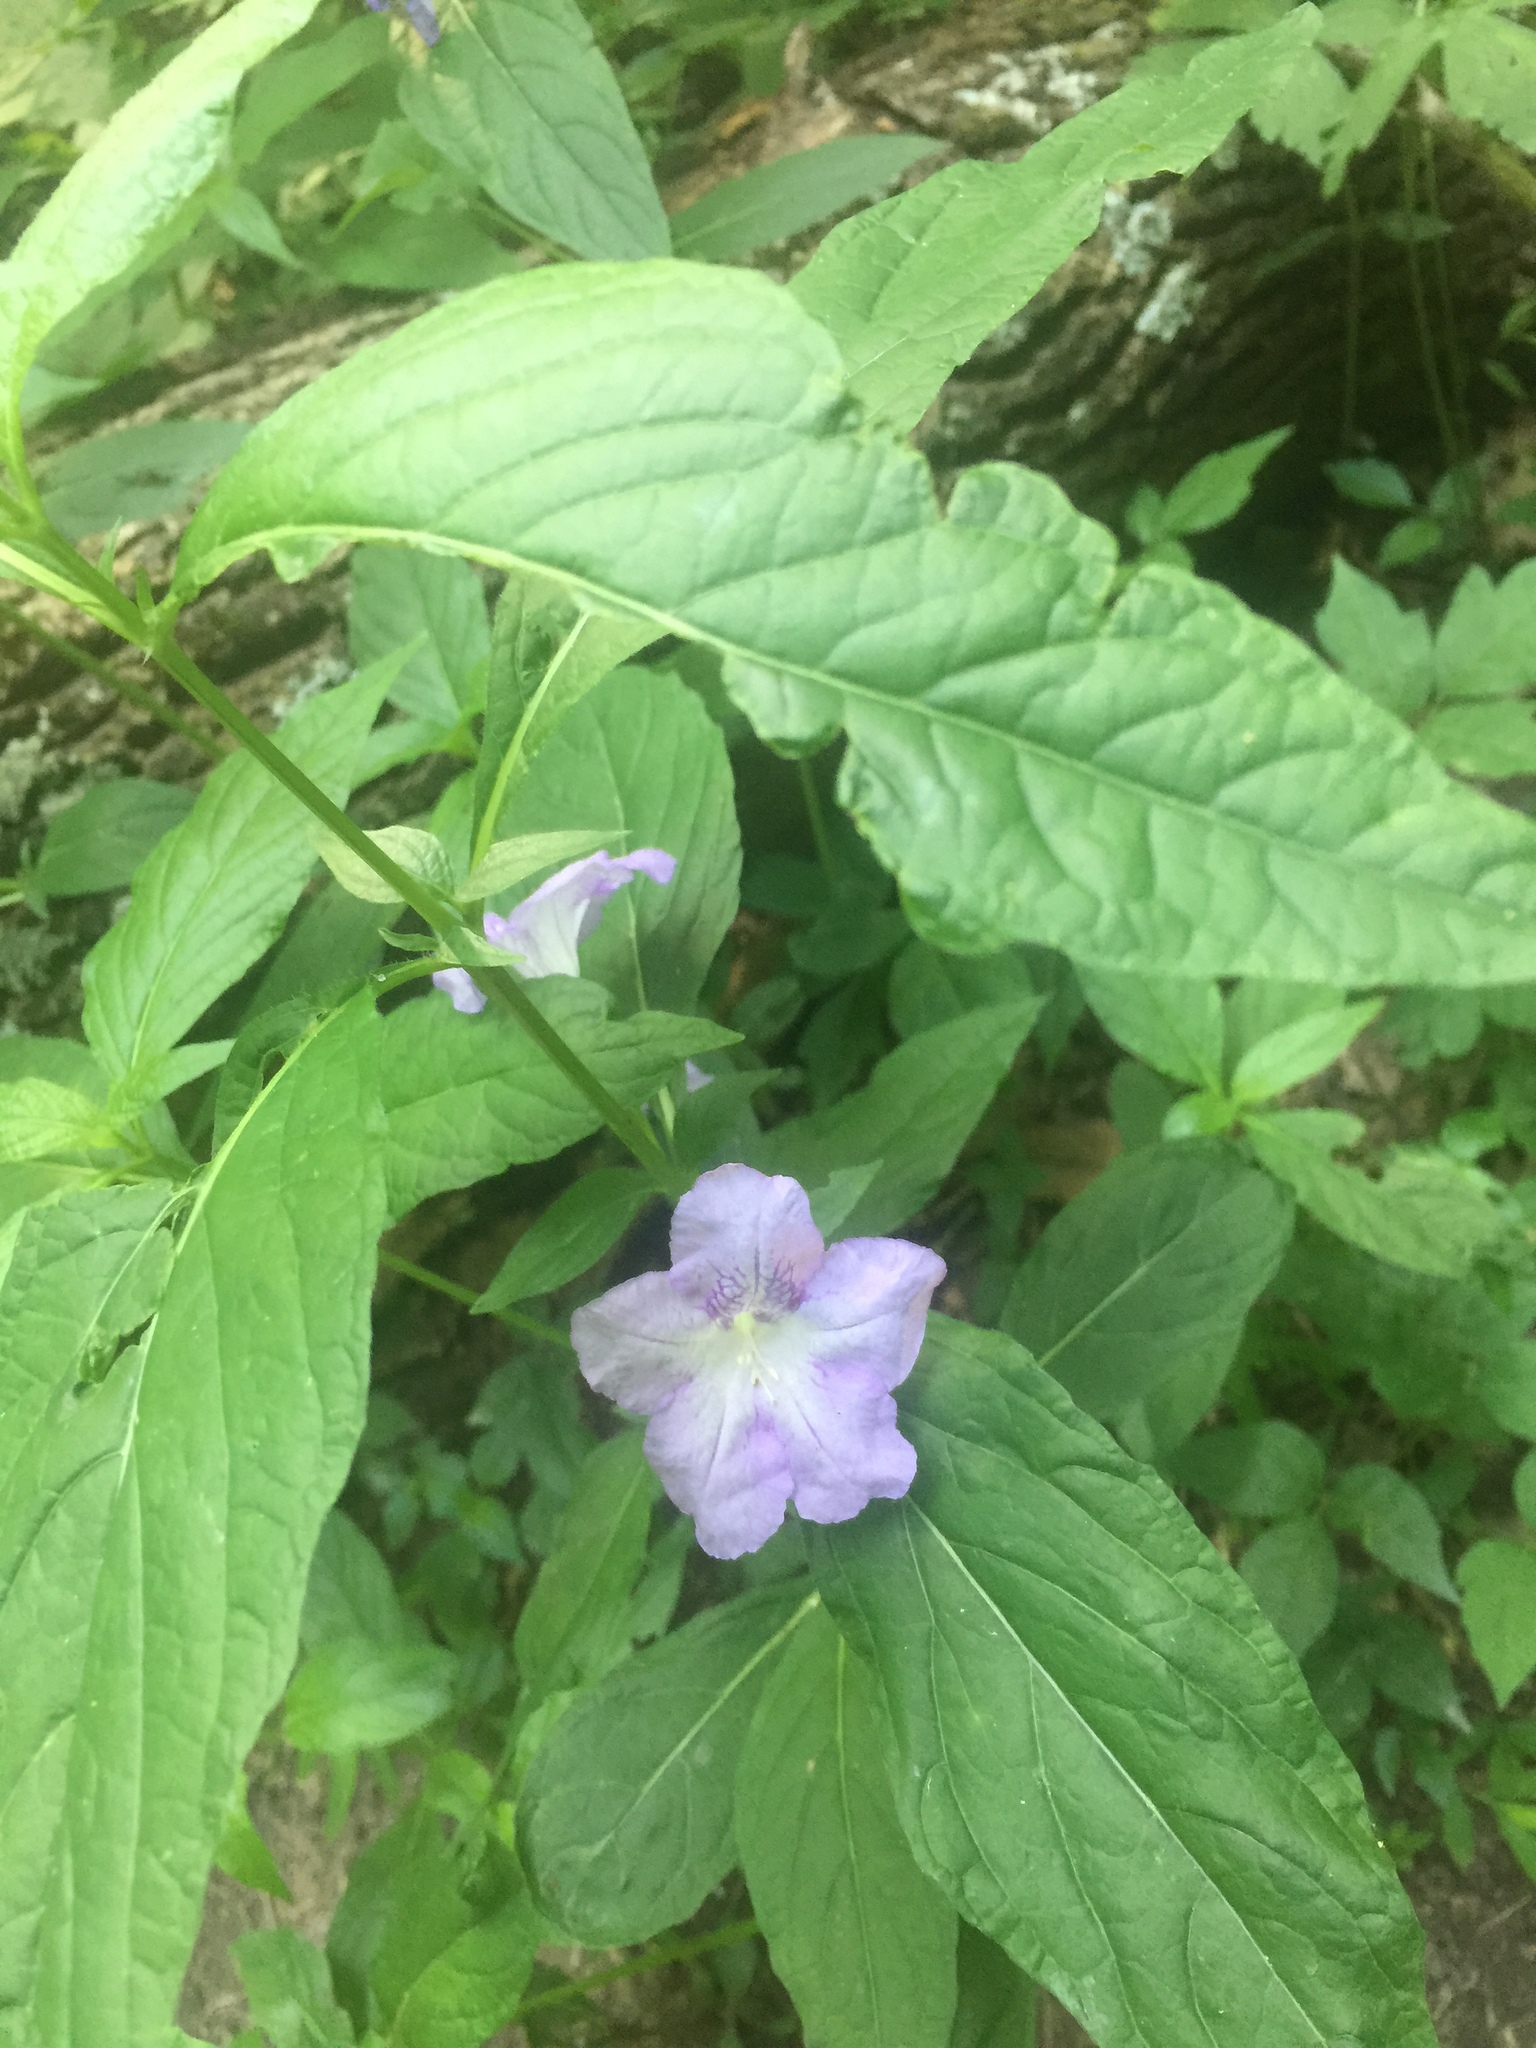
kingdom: Plantae
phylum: Tracheophyta
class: Magnoliopsida
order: Lamiales
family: Acanthaceae
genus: Ruellia
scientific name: Ruellia strepens
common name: Limestone wild petunia
